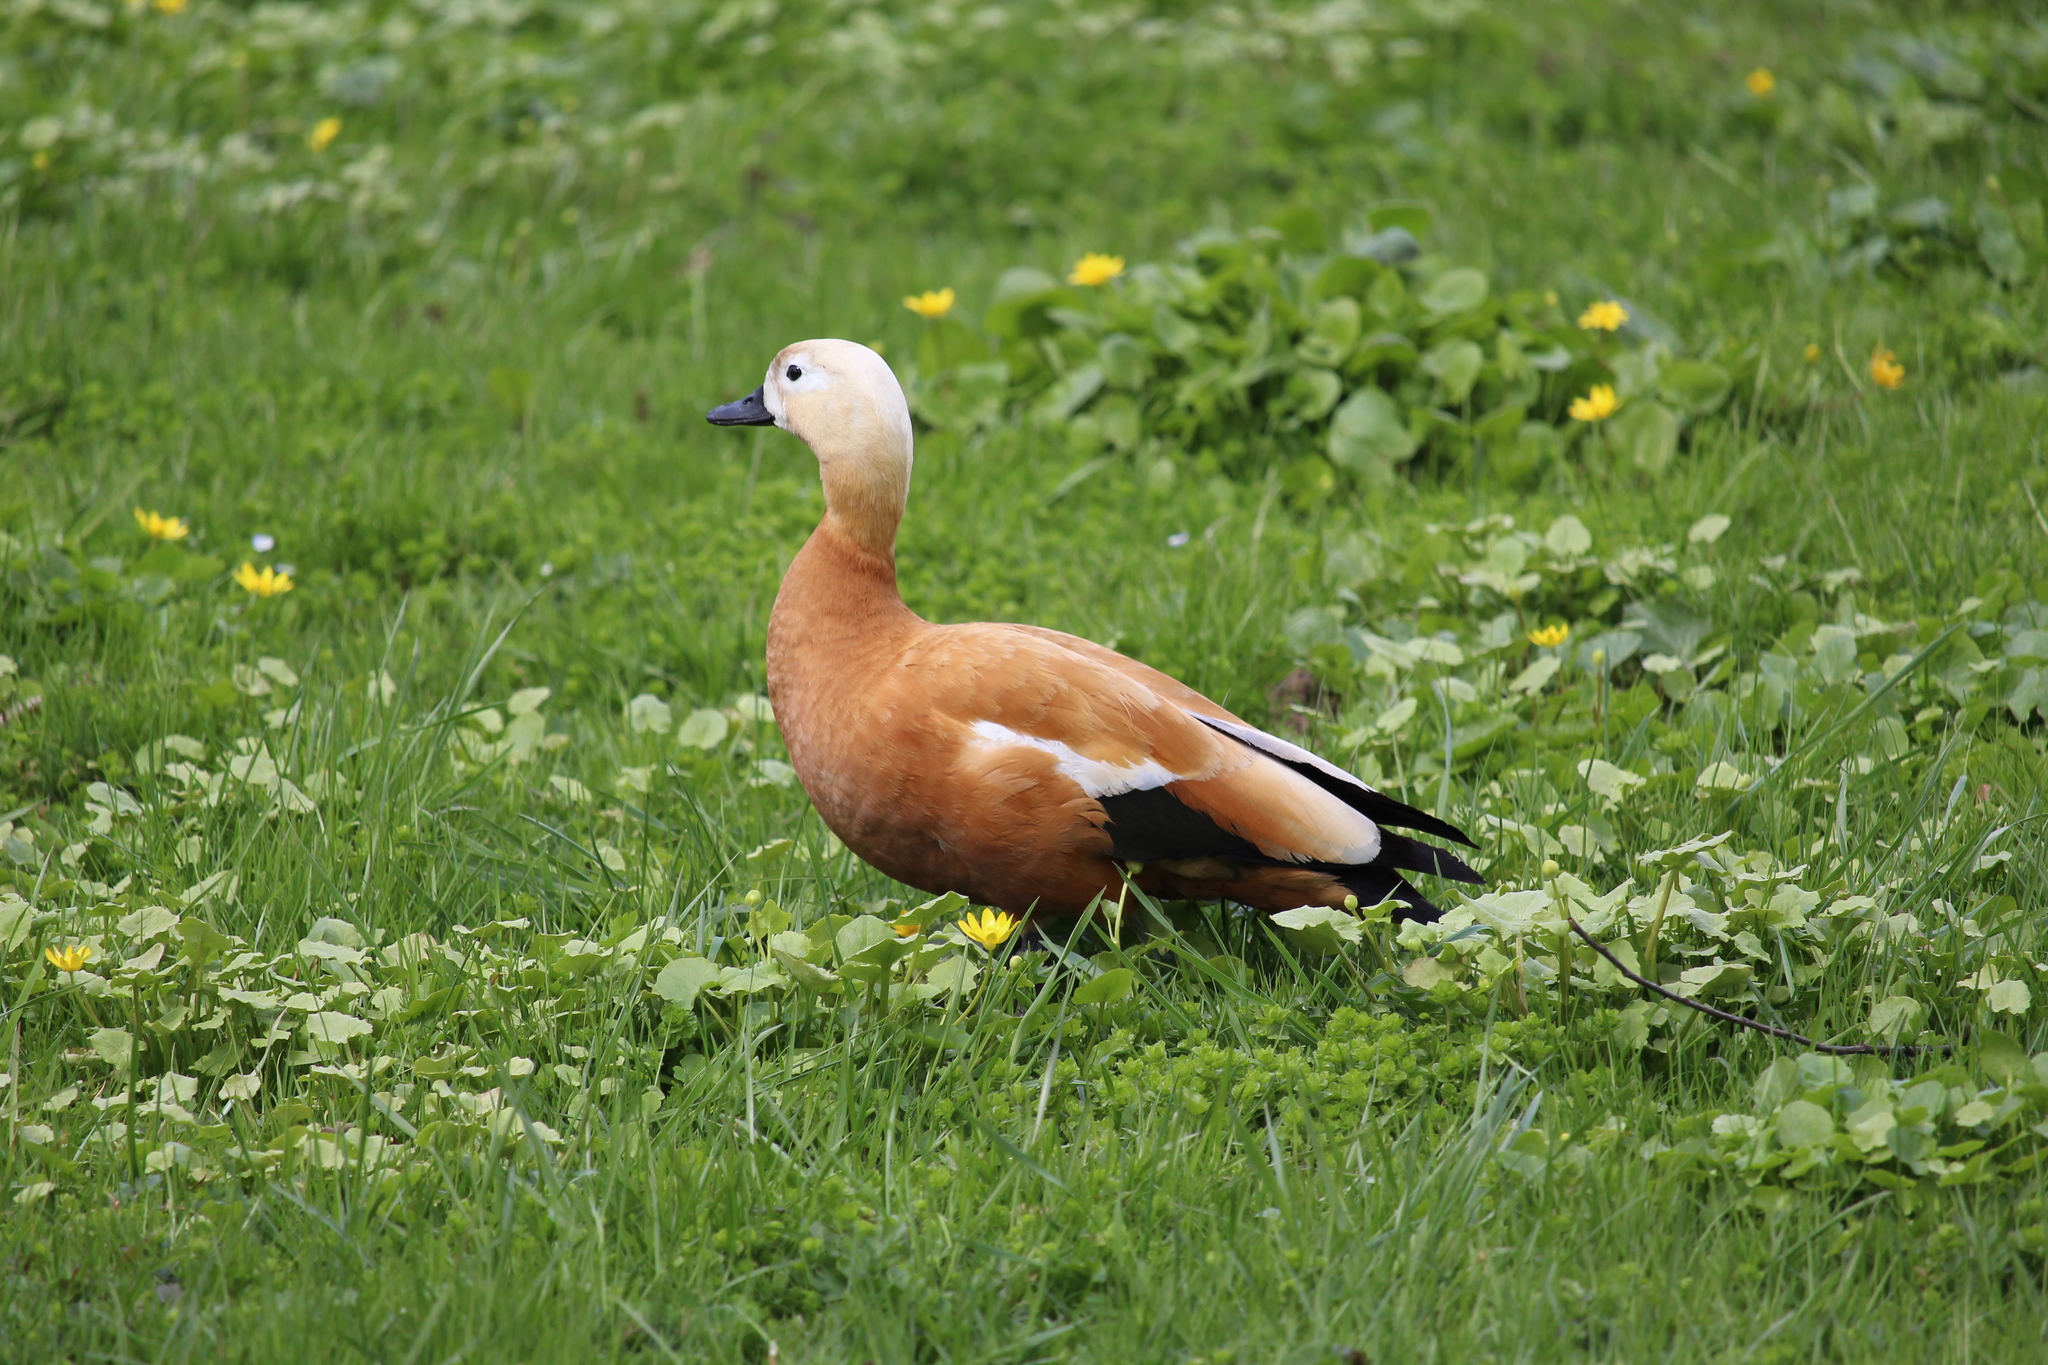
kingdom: Animalia
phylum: Chordata
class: Aves
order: Anseriformes
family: Anatidae
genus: Tadorna
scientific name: Tadorna ferruginea
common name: Ruddy shelduck
